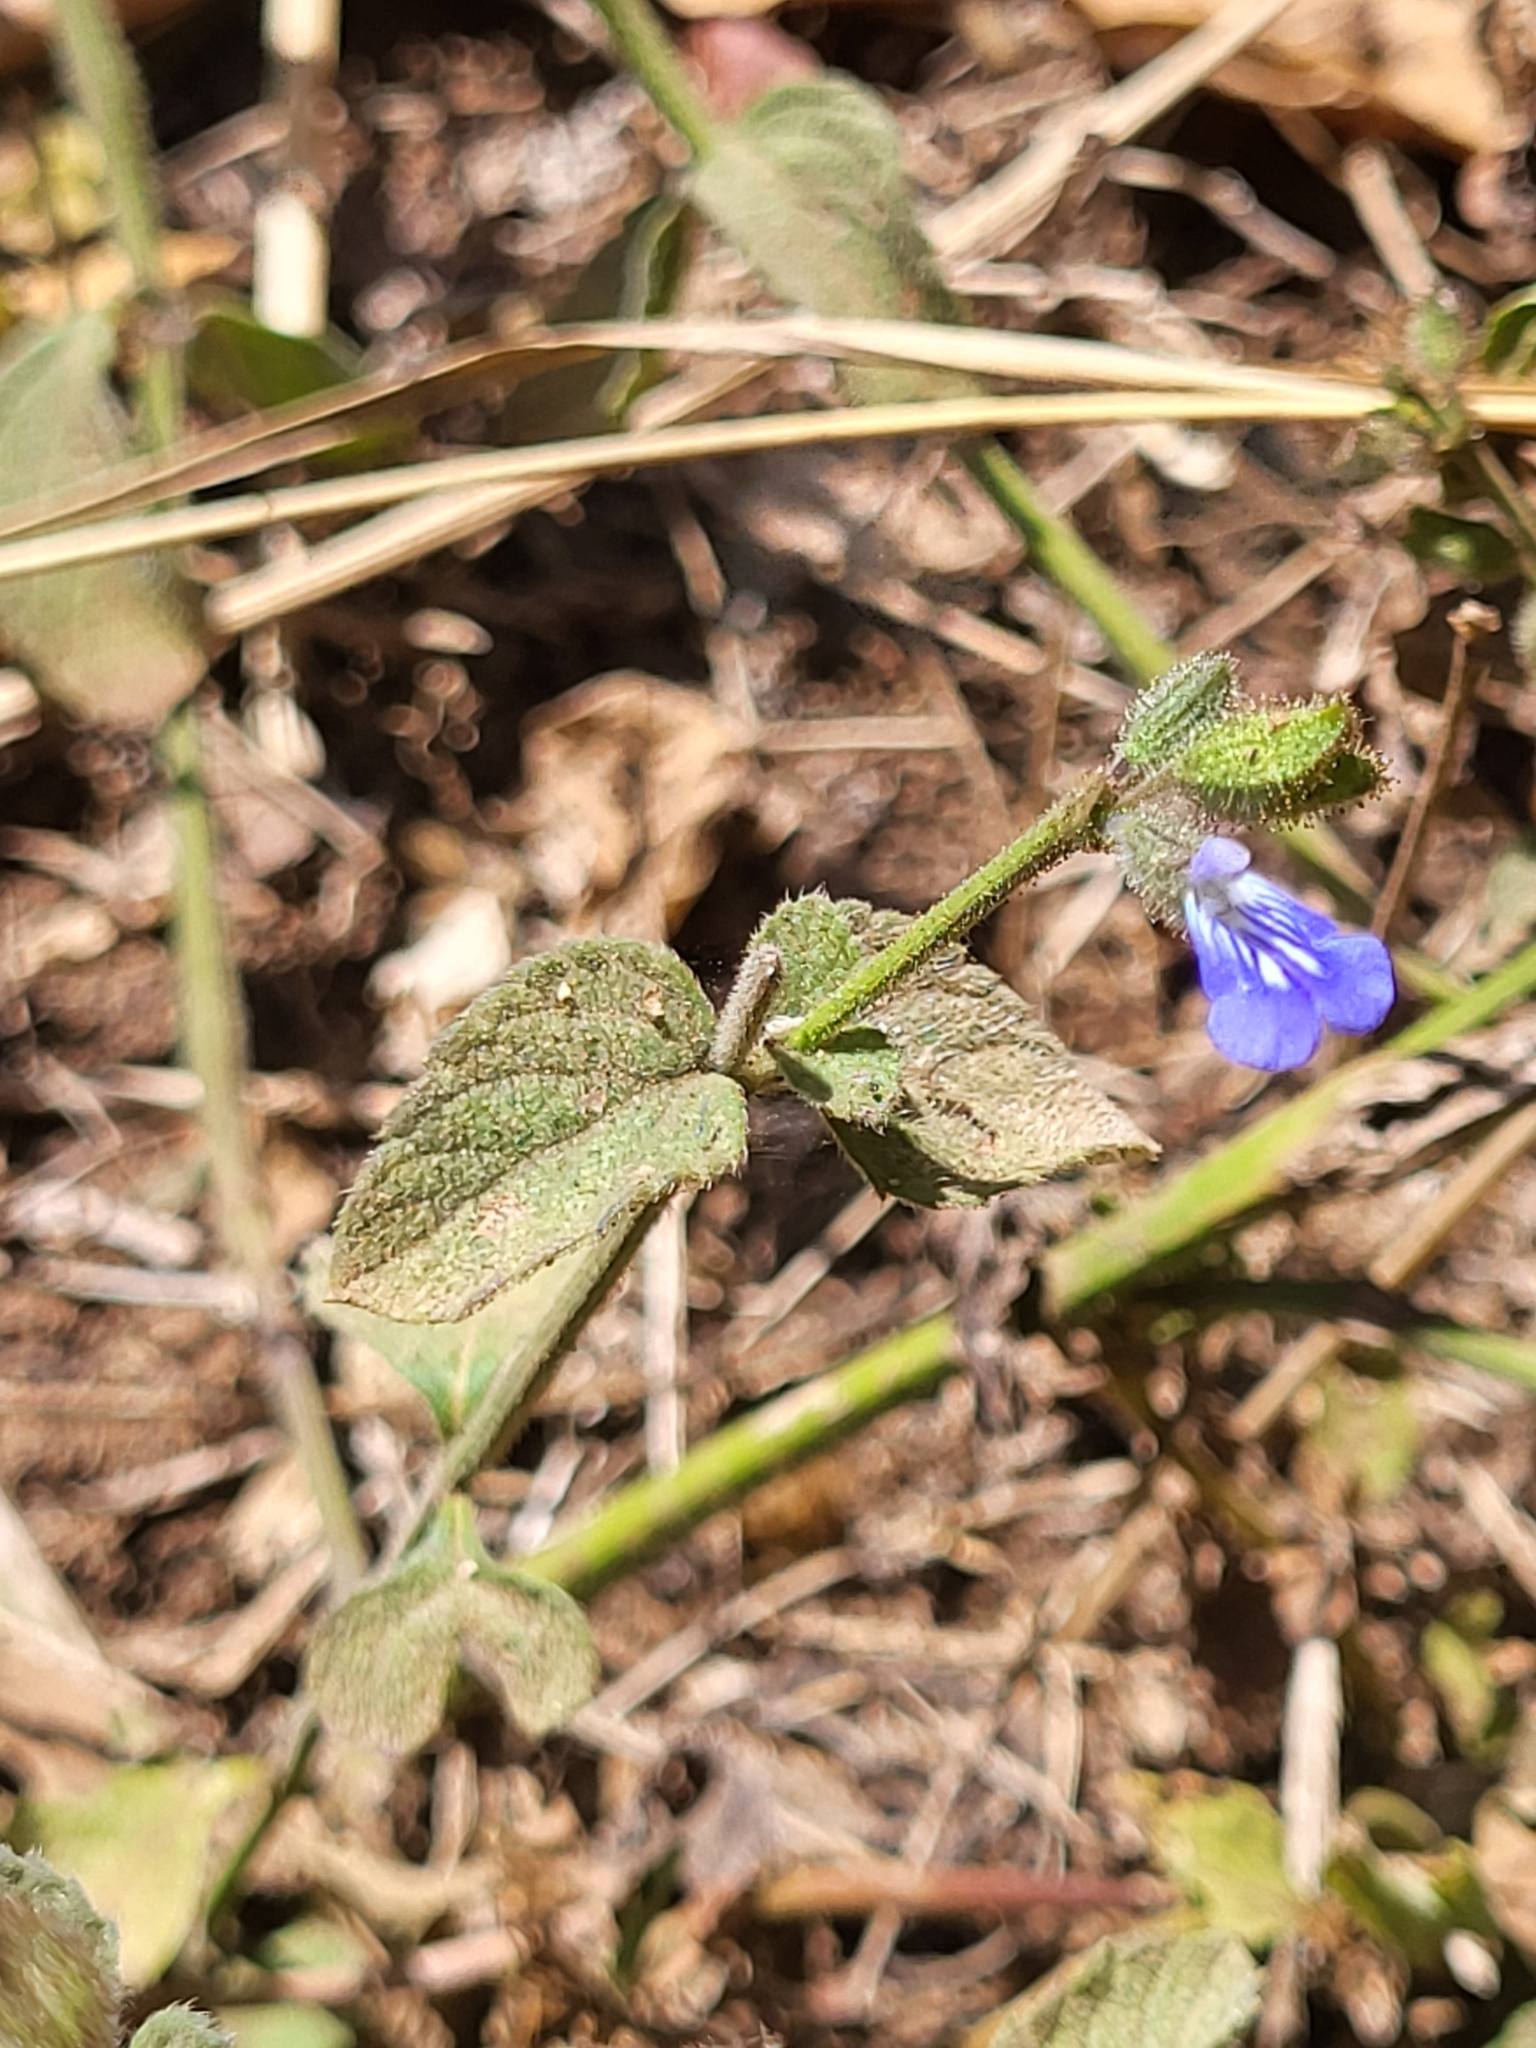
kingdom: Plantae
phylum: Tracheophyta
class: Magnoliopsida
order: Lamiales
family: Lamiaceae
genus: Salvia
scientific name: Salvia misella
